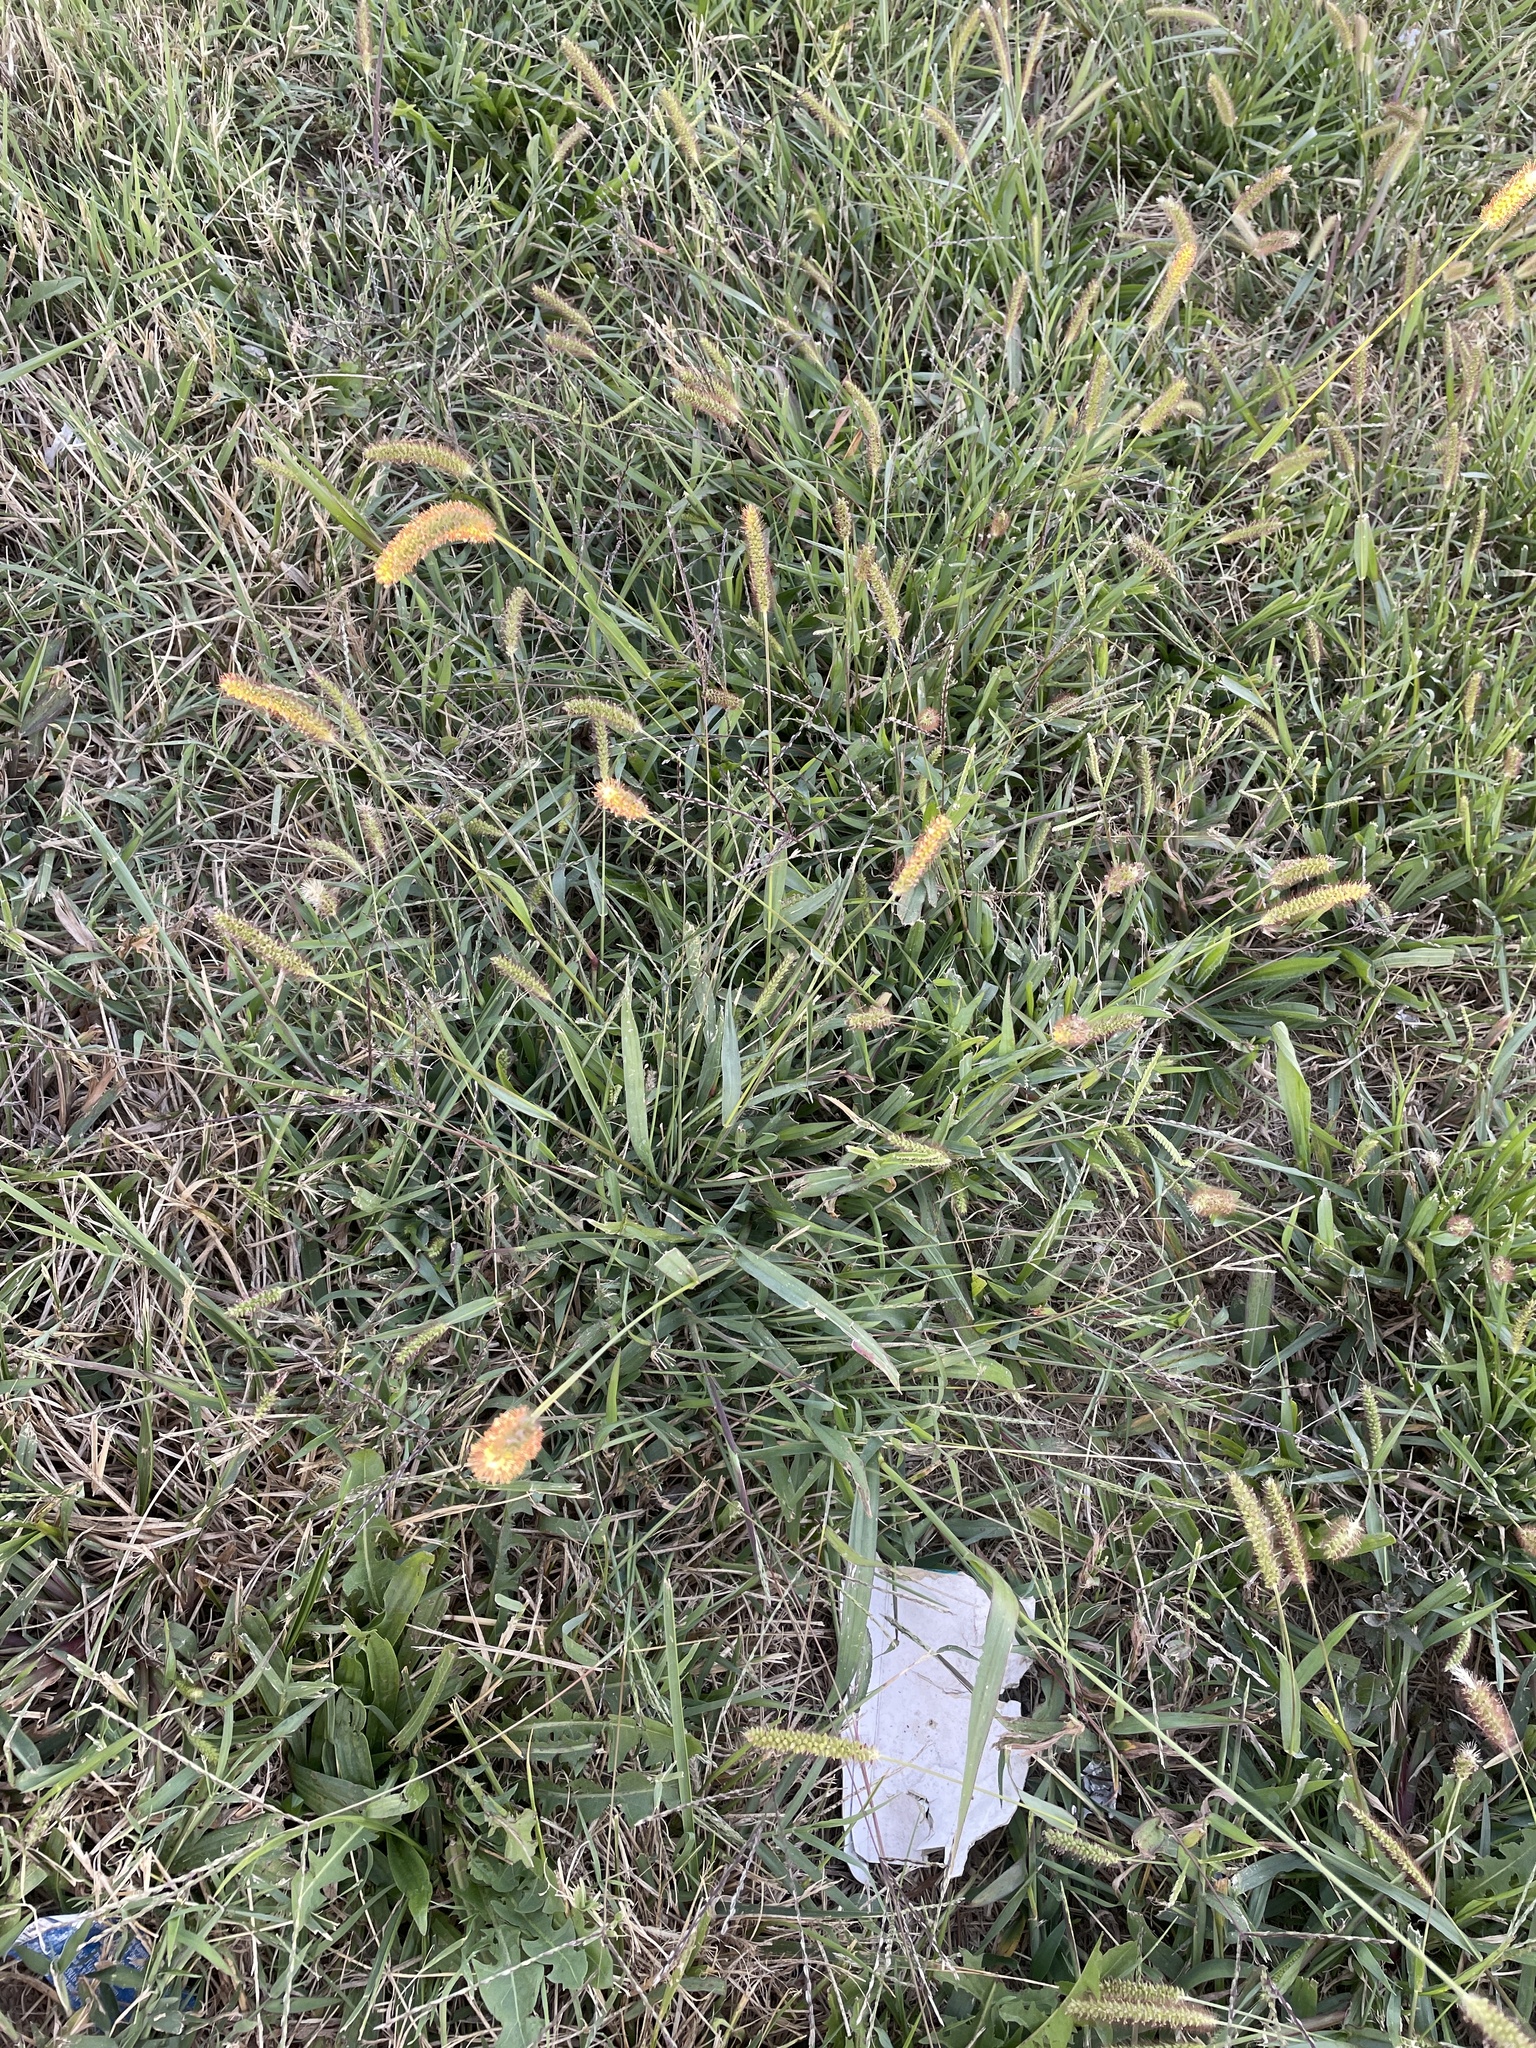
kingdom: Plantae
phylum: Tracheophyta
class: Liliopsida
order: Poales
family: Poaceae
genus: Setaria
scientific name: Setaria pumila
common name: Yellow bristle-grass
